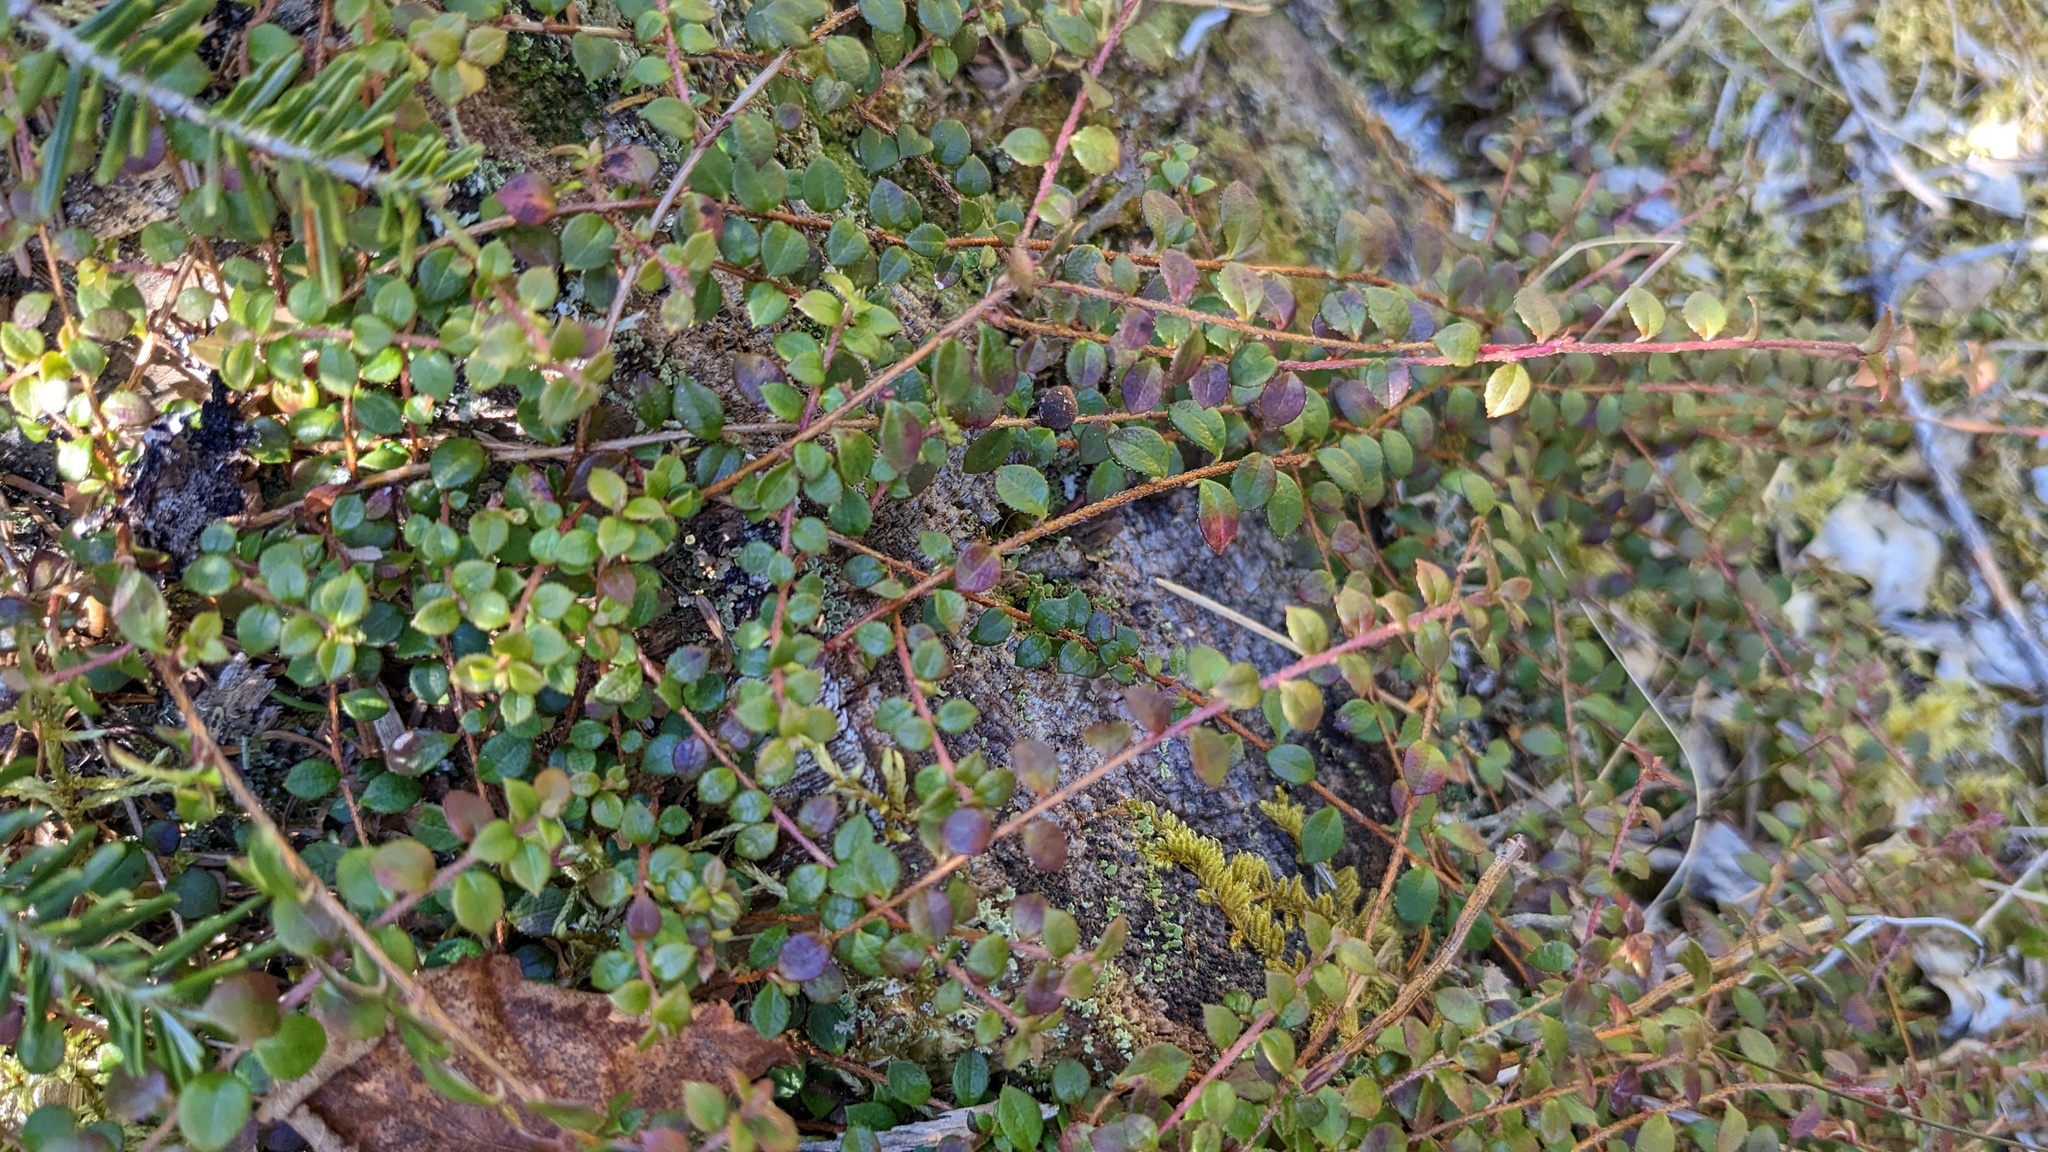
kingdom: Plantae
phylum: Tracheophyta
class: Magnoliopsida
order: Ericales
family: Ericaceae
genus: Gaultheria
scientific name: Gaultheria hispidula
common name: Cancer wintergreen
